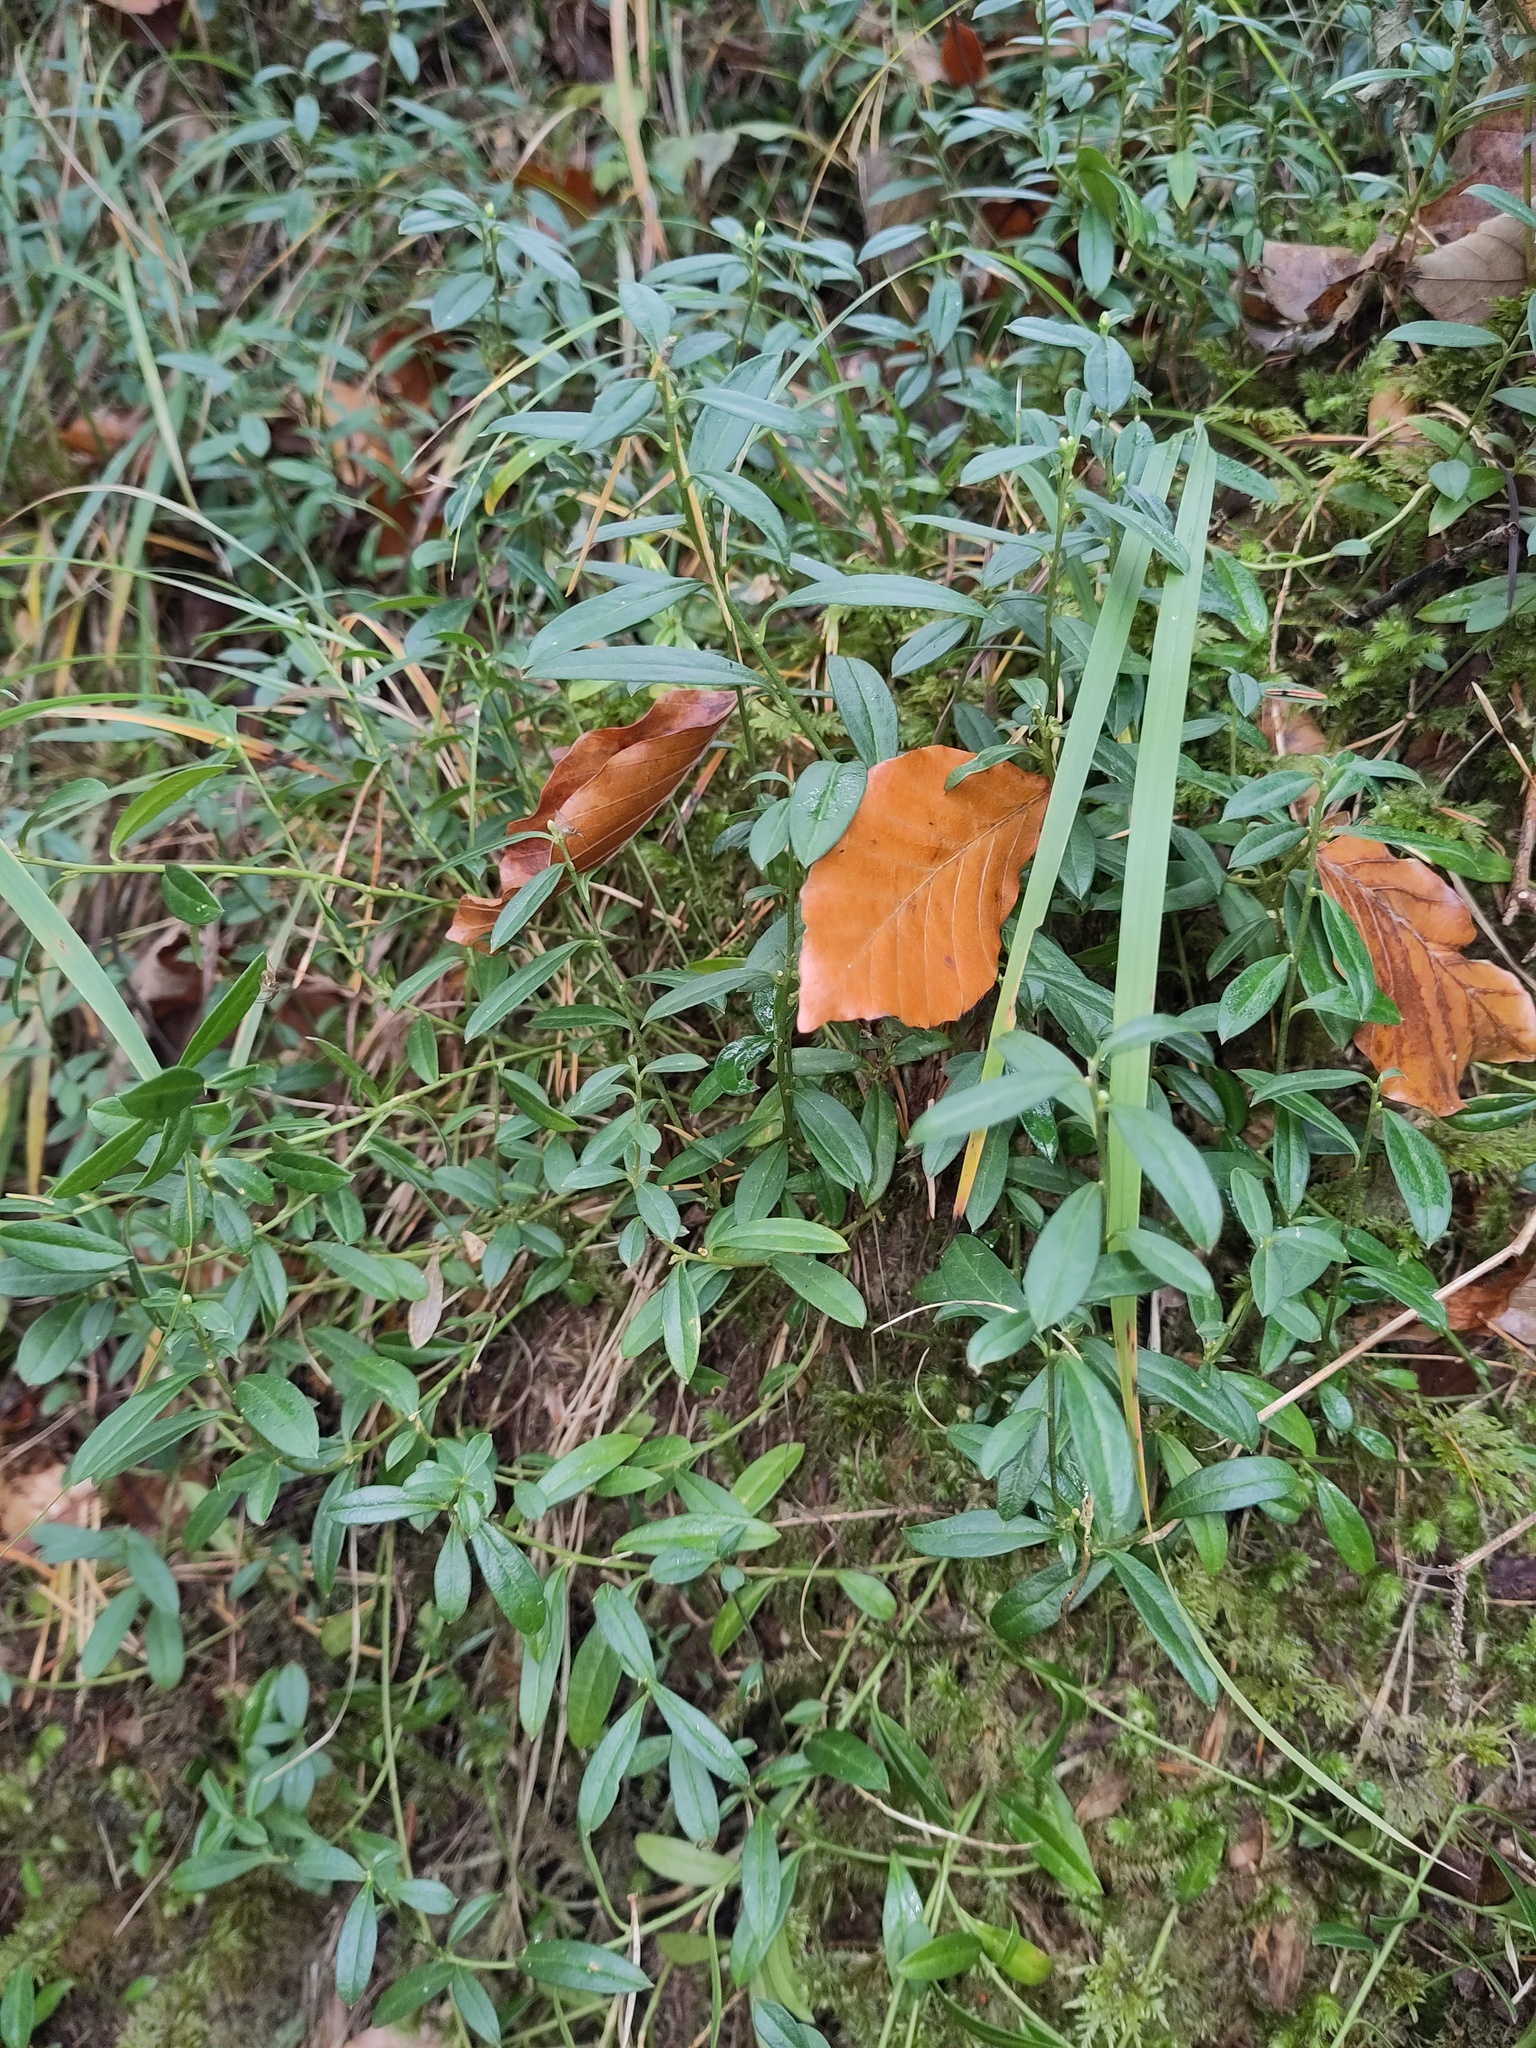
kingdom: Plantae
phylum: Tracheophyta
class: Magnoliopsida
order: Fabales
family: Polygalaceae
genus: Polygaloides
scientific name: Polygaloides chamaebuxus
